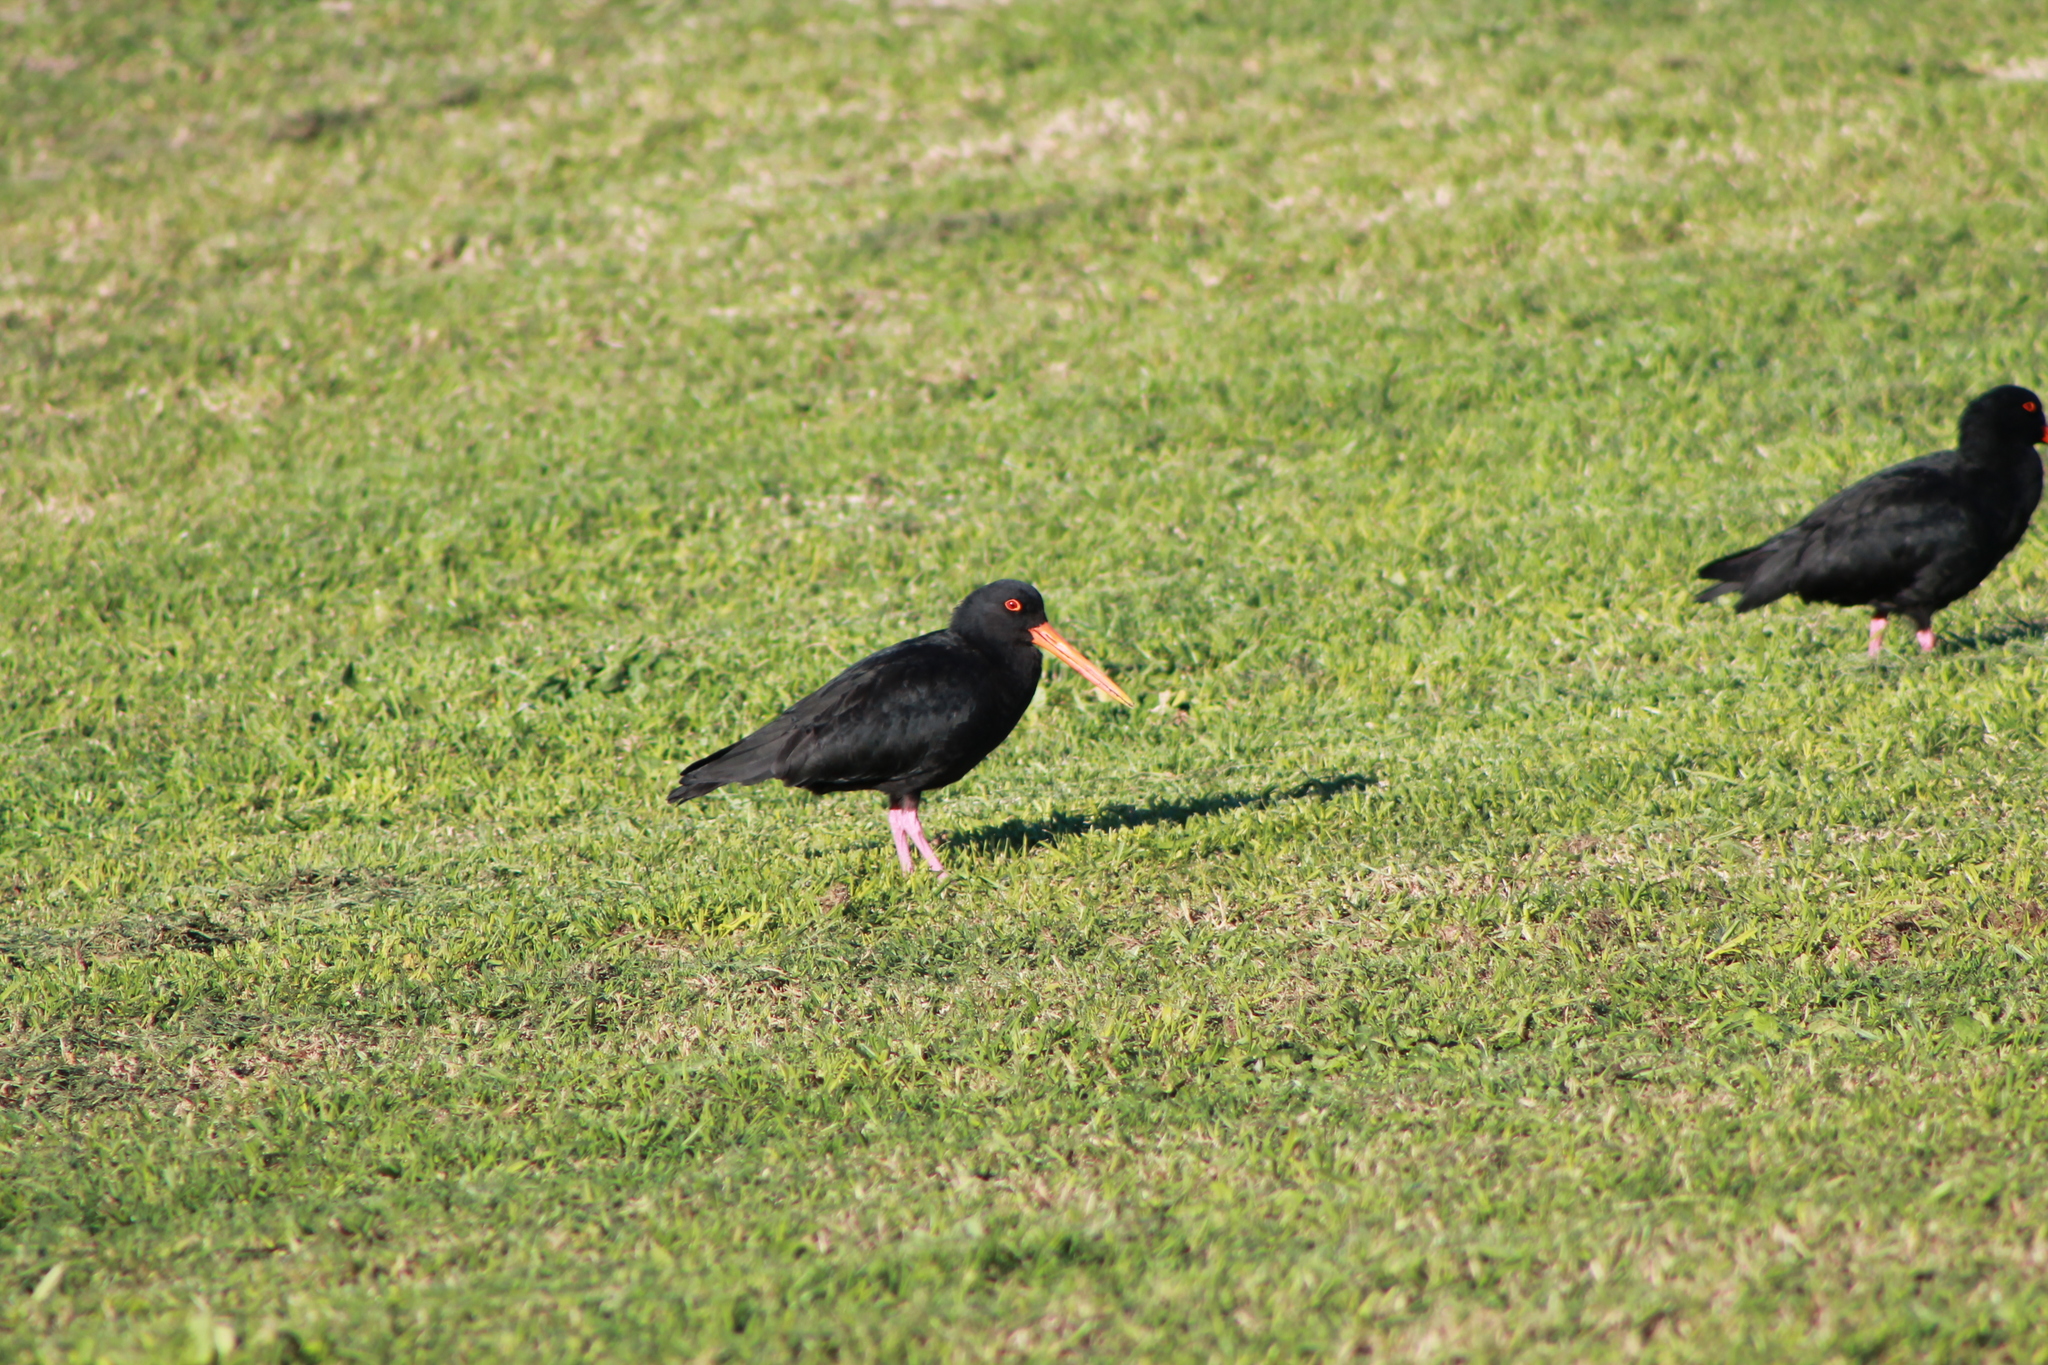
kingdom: Animalia
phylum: Chordata
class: Aves
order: Charadriiformes
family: Haematopodidae
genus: Haematopus
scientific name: Haematopus unicolor
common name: Variable oystercatcher
